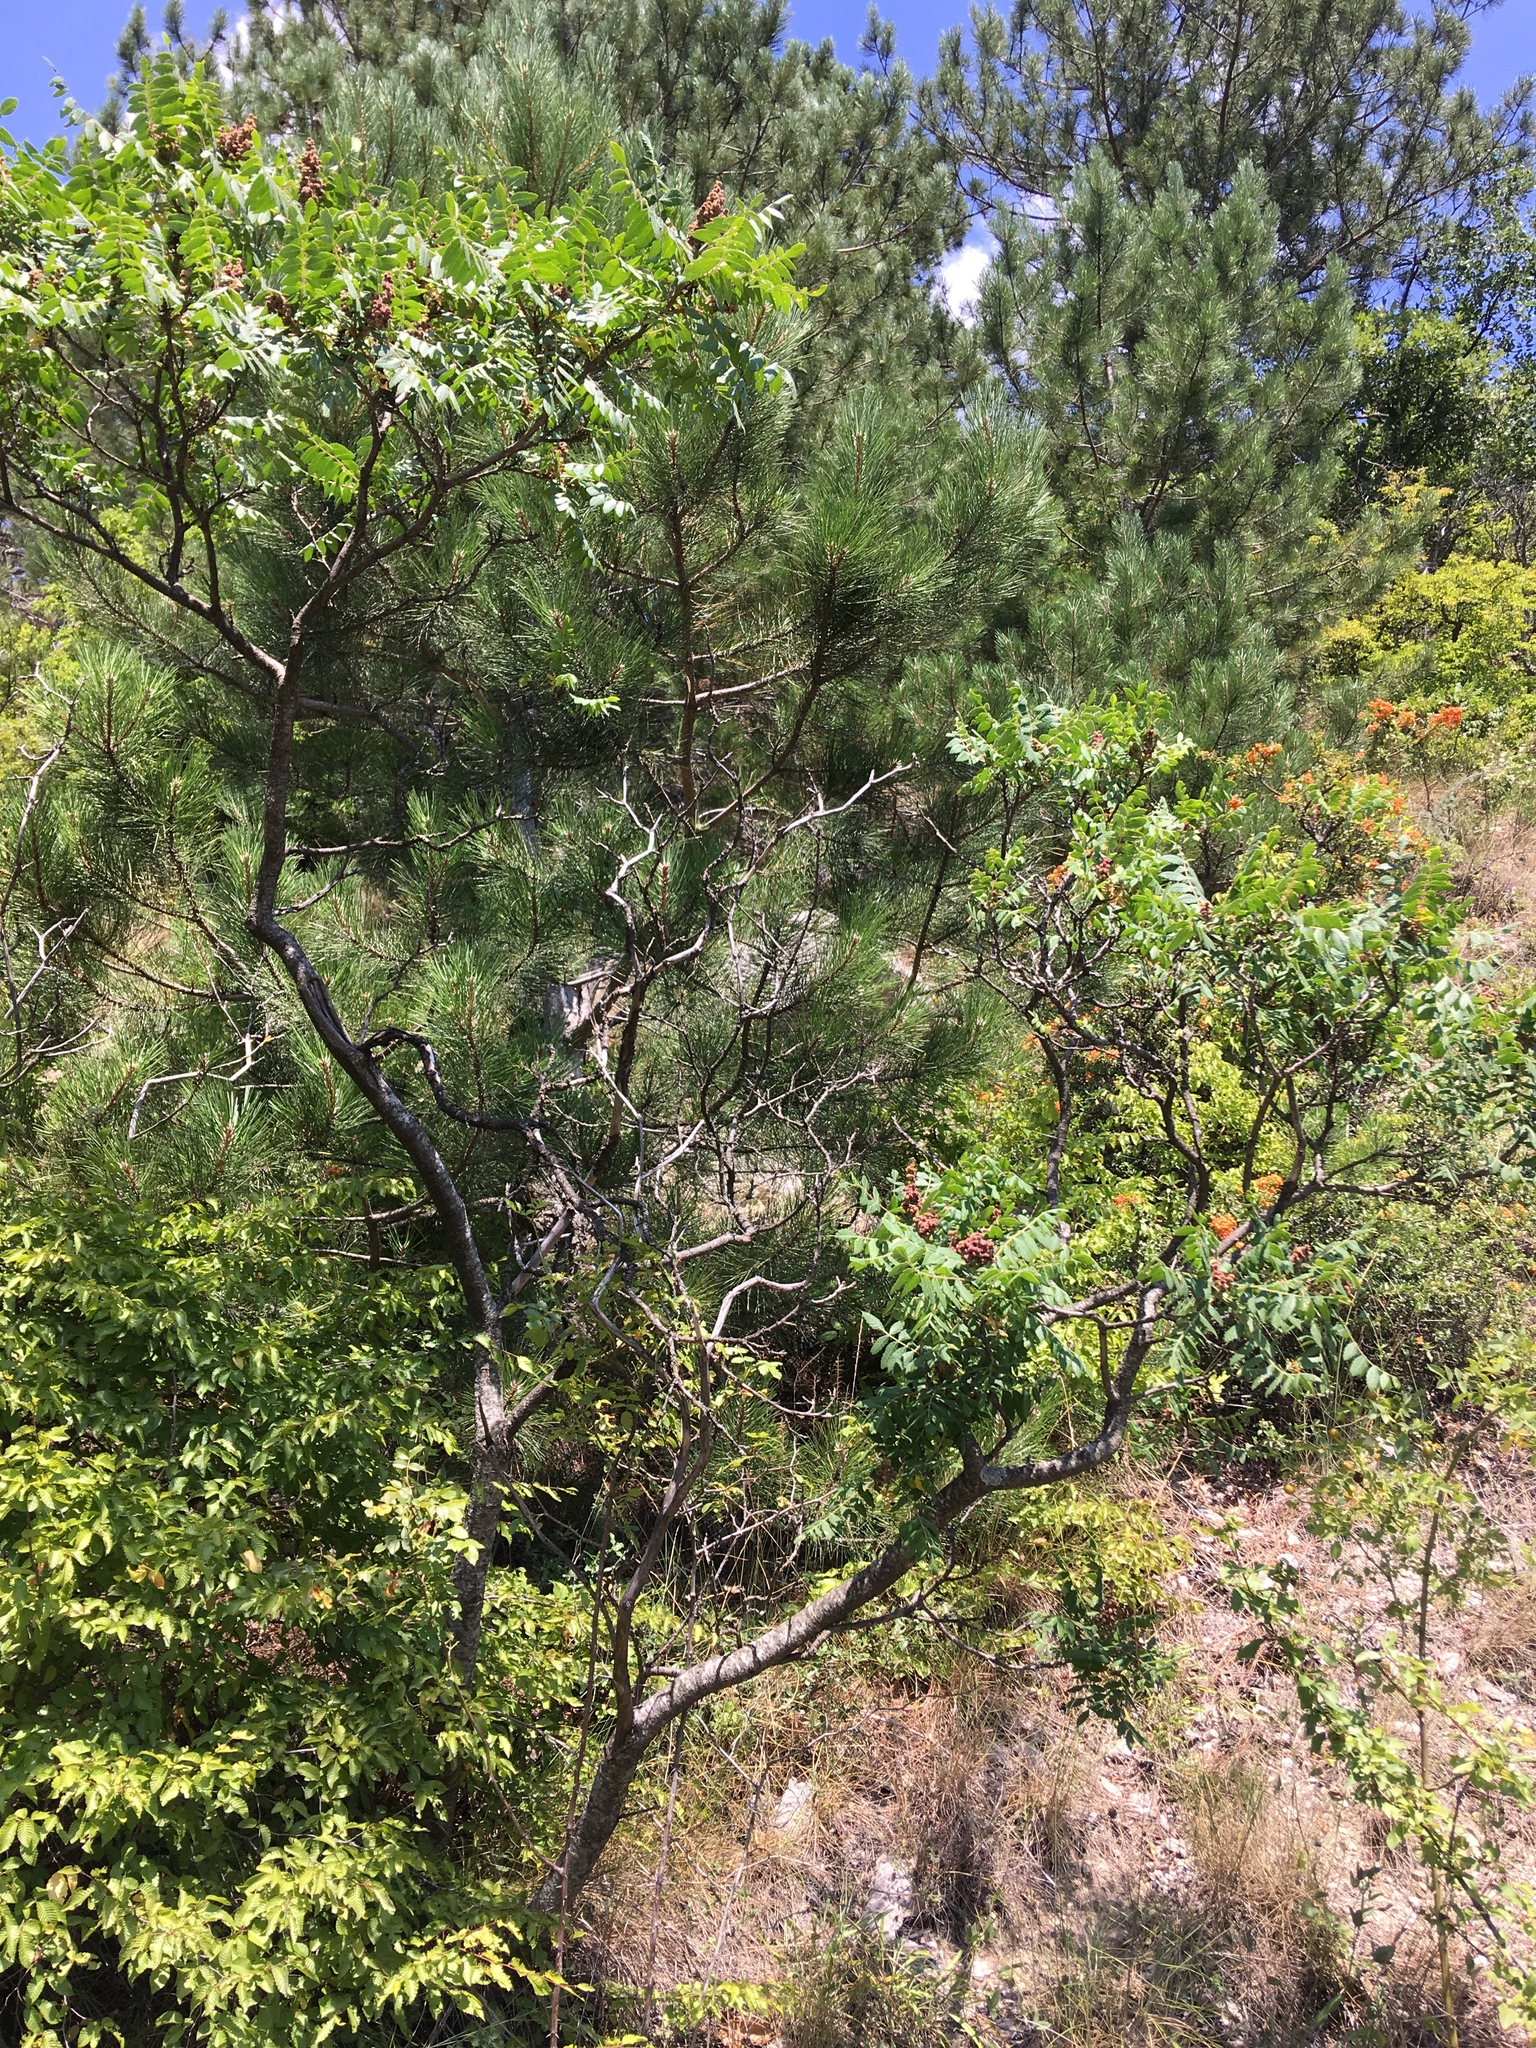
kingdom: Plantae
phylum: Tracheophyta
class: Magnoliopsida
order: Sapindales
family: Anacardiaceae
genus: Rhus
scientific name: Rhus coriaria
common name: Tanner's sumach
